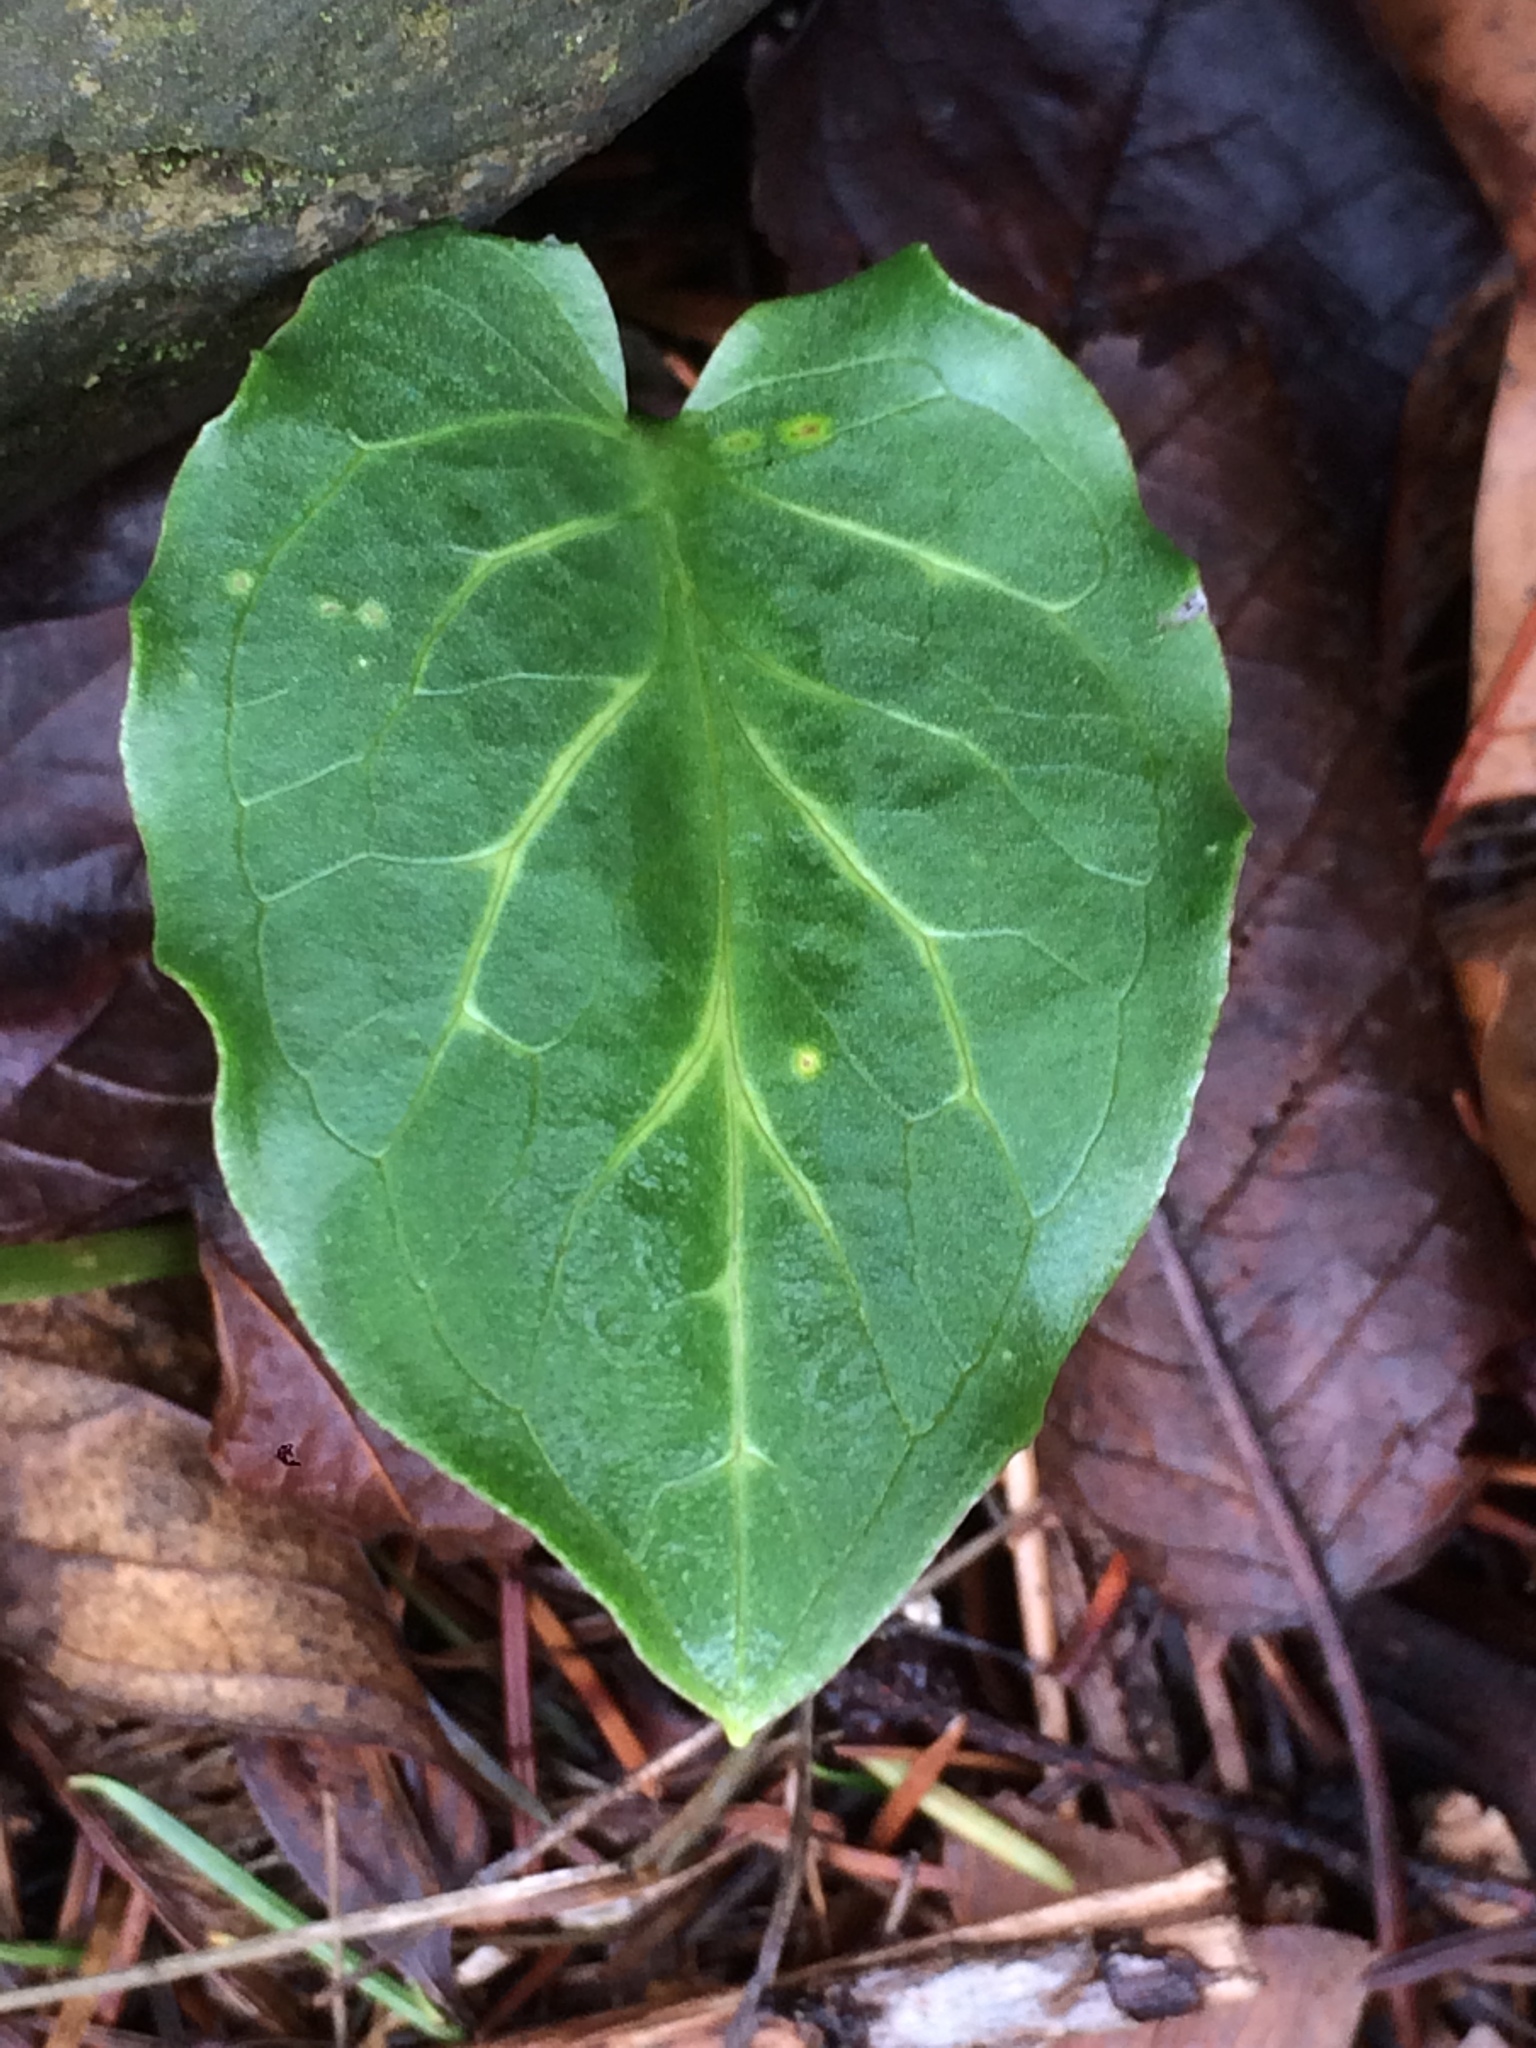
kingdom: Plantae
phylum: Tracheophyta
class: Liliopsida
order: Alismatales
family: Araceae
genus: Arum
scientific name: Arum italicum
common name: Italian lords-and-ladies
